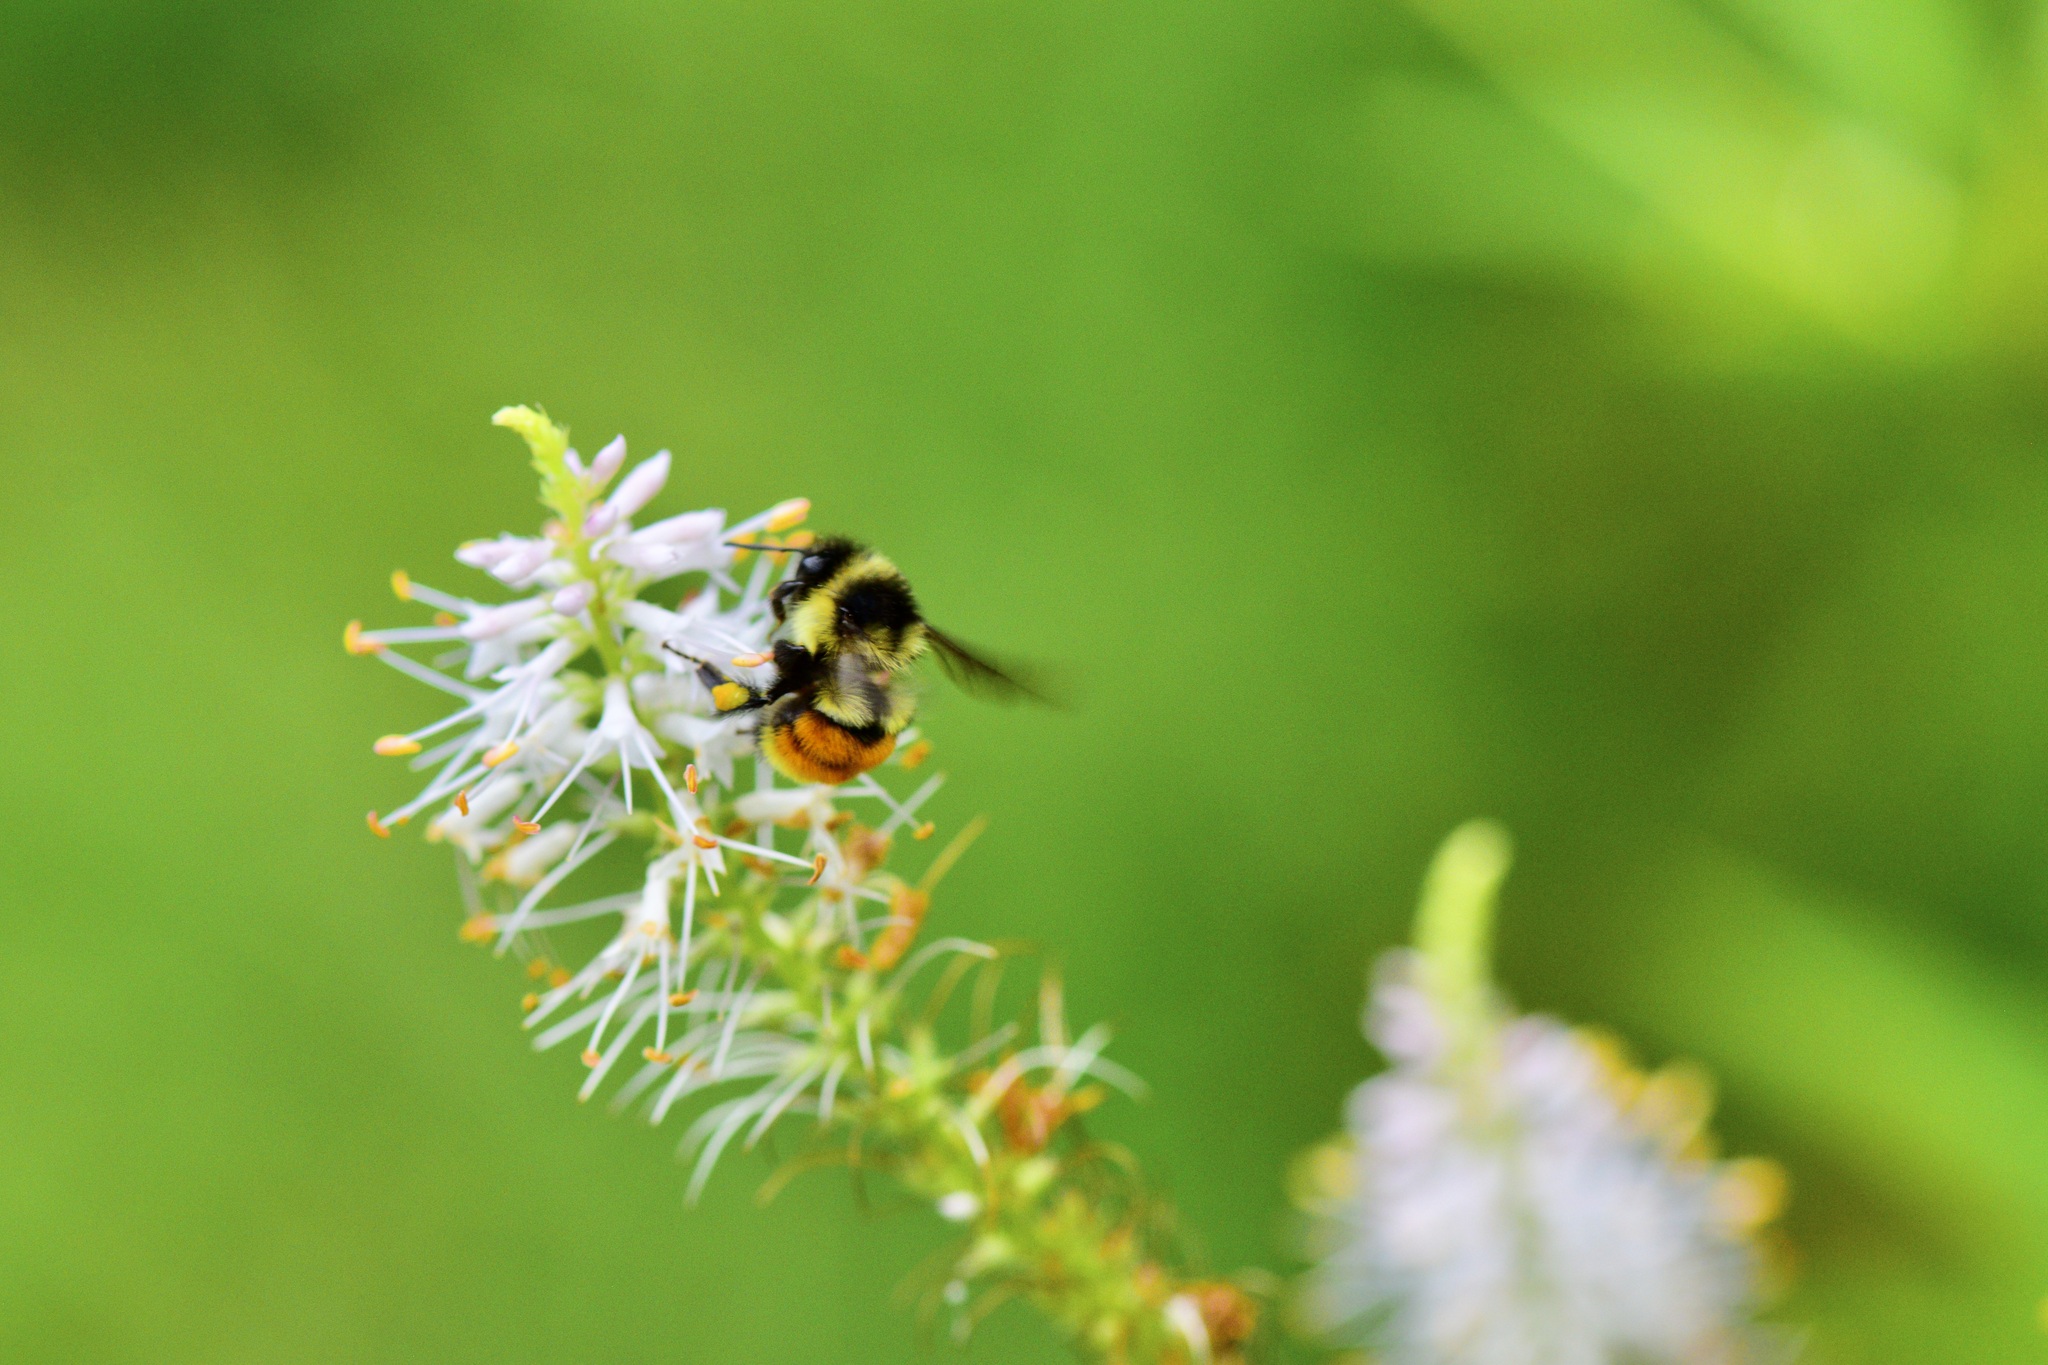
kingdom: Animalia
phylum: Arthropoda
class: Insecta
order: Hymenoptera
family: Apidae
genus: Bombus
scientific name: Bombus ternarius
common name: Tri-colored bumble bee
